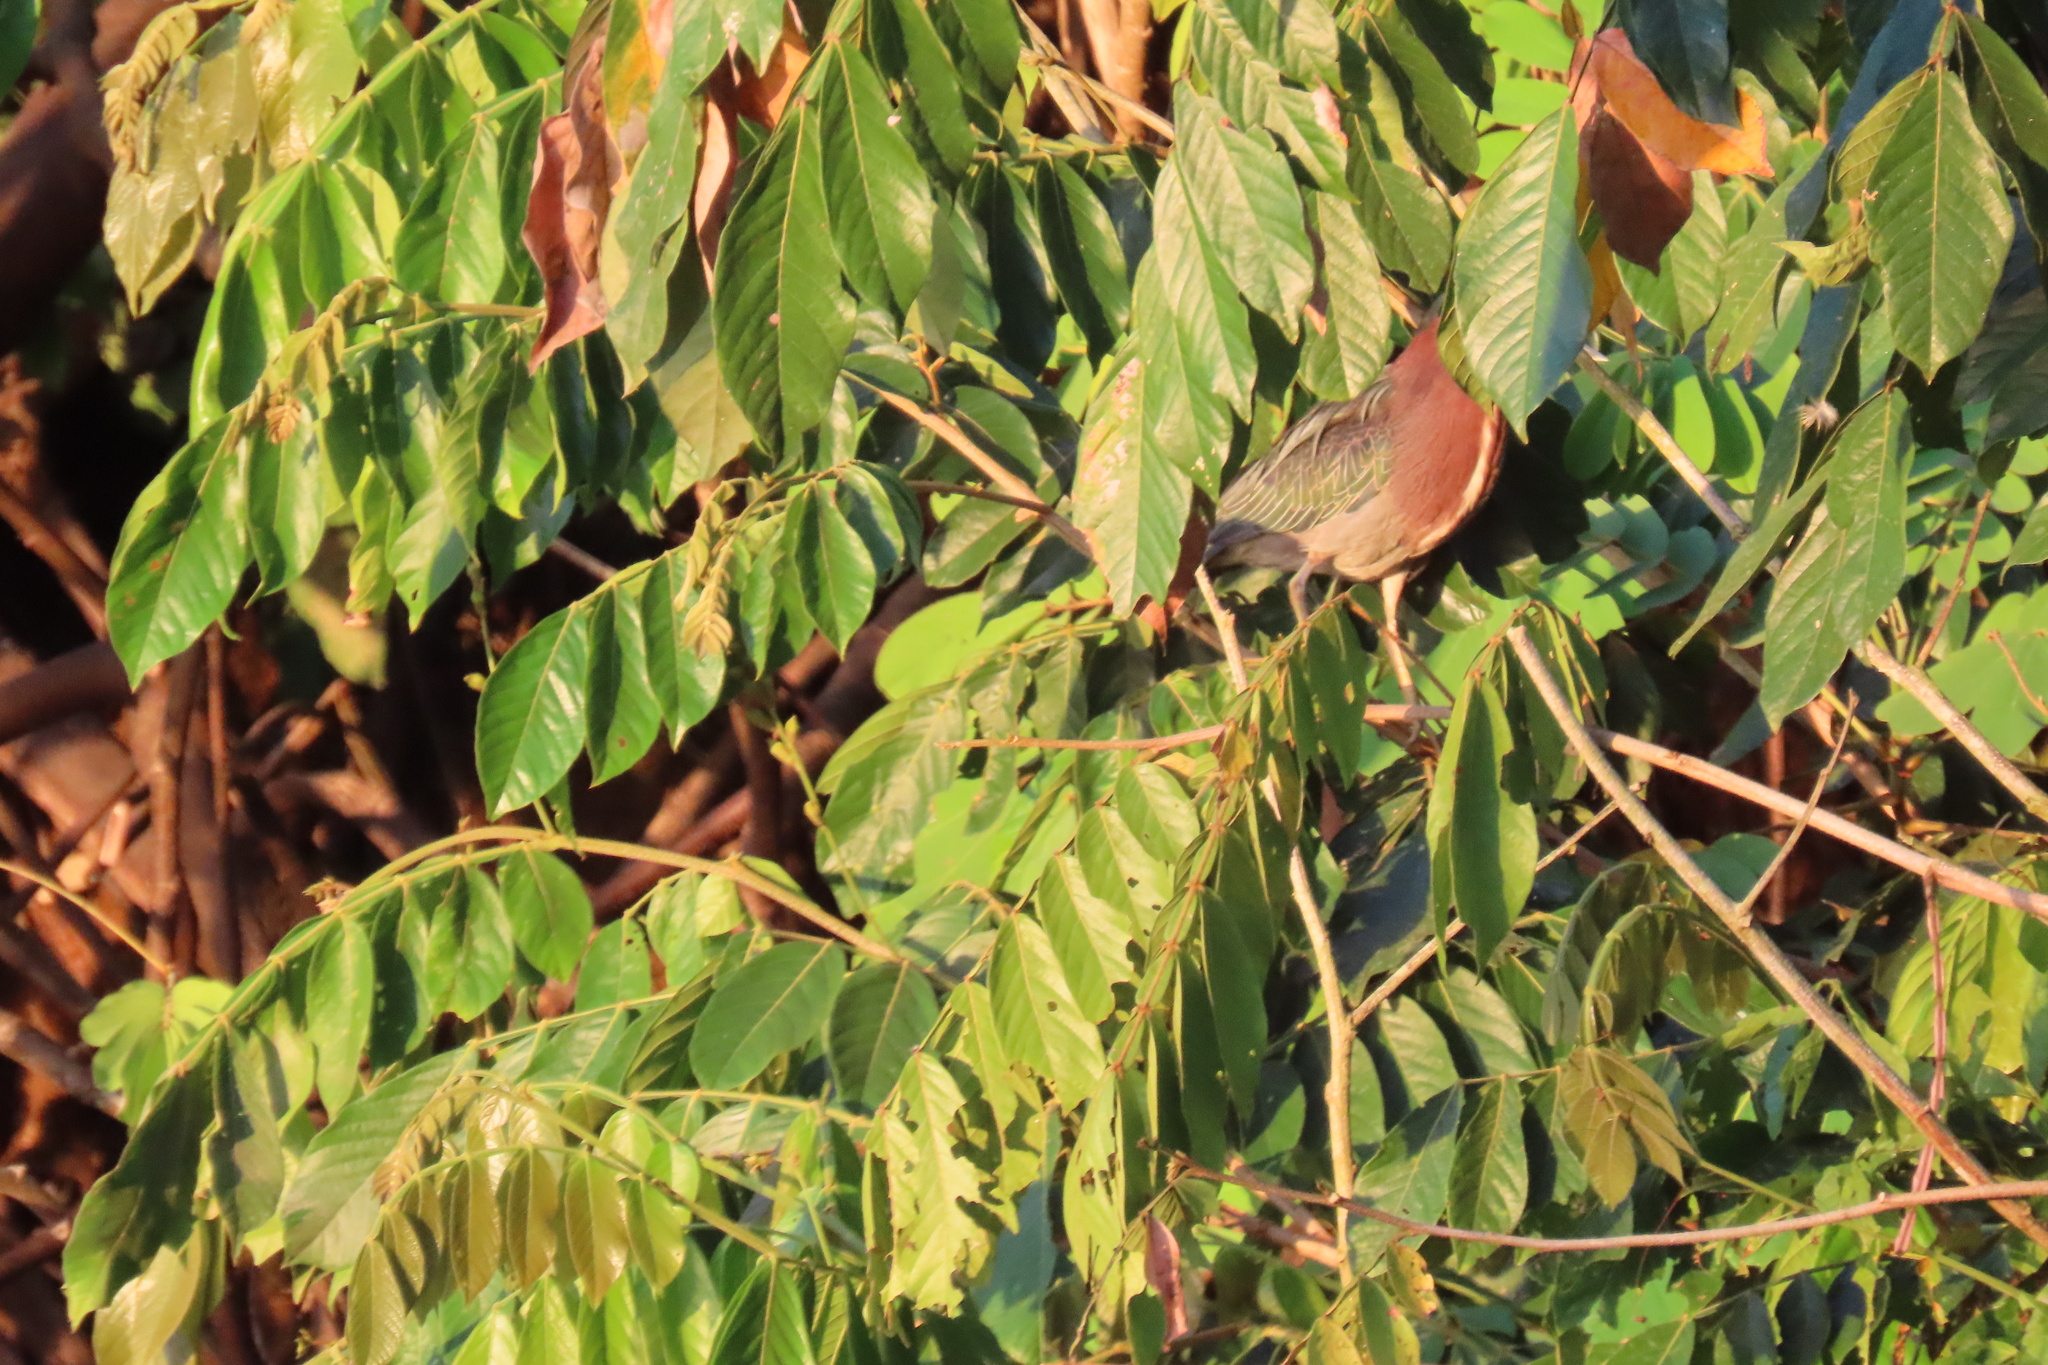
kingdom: Animalia
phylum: Chordata
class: Aves
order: Pelecaniformes
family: Ardeidae
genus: Butorides
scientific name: Butorides virescens
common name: Green heron
